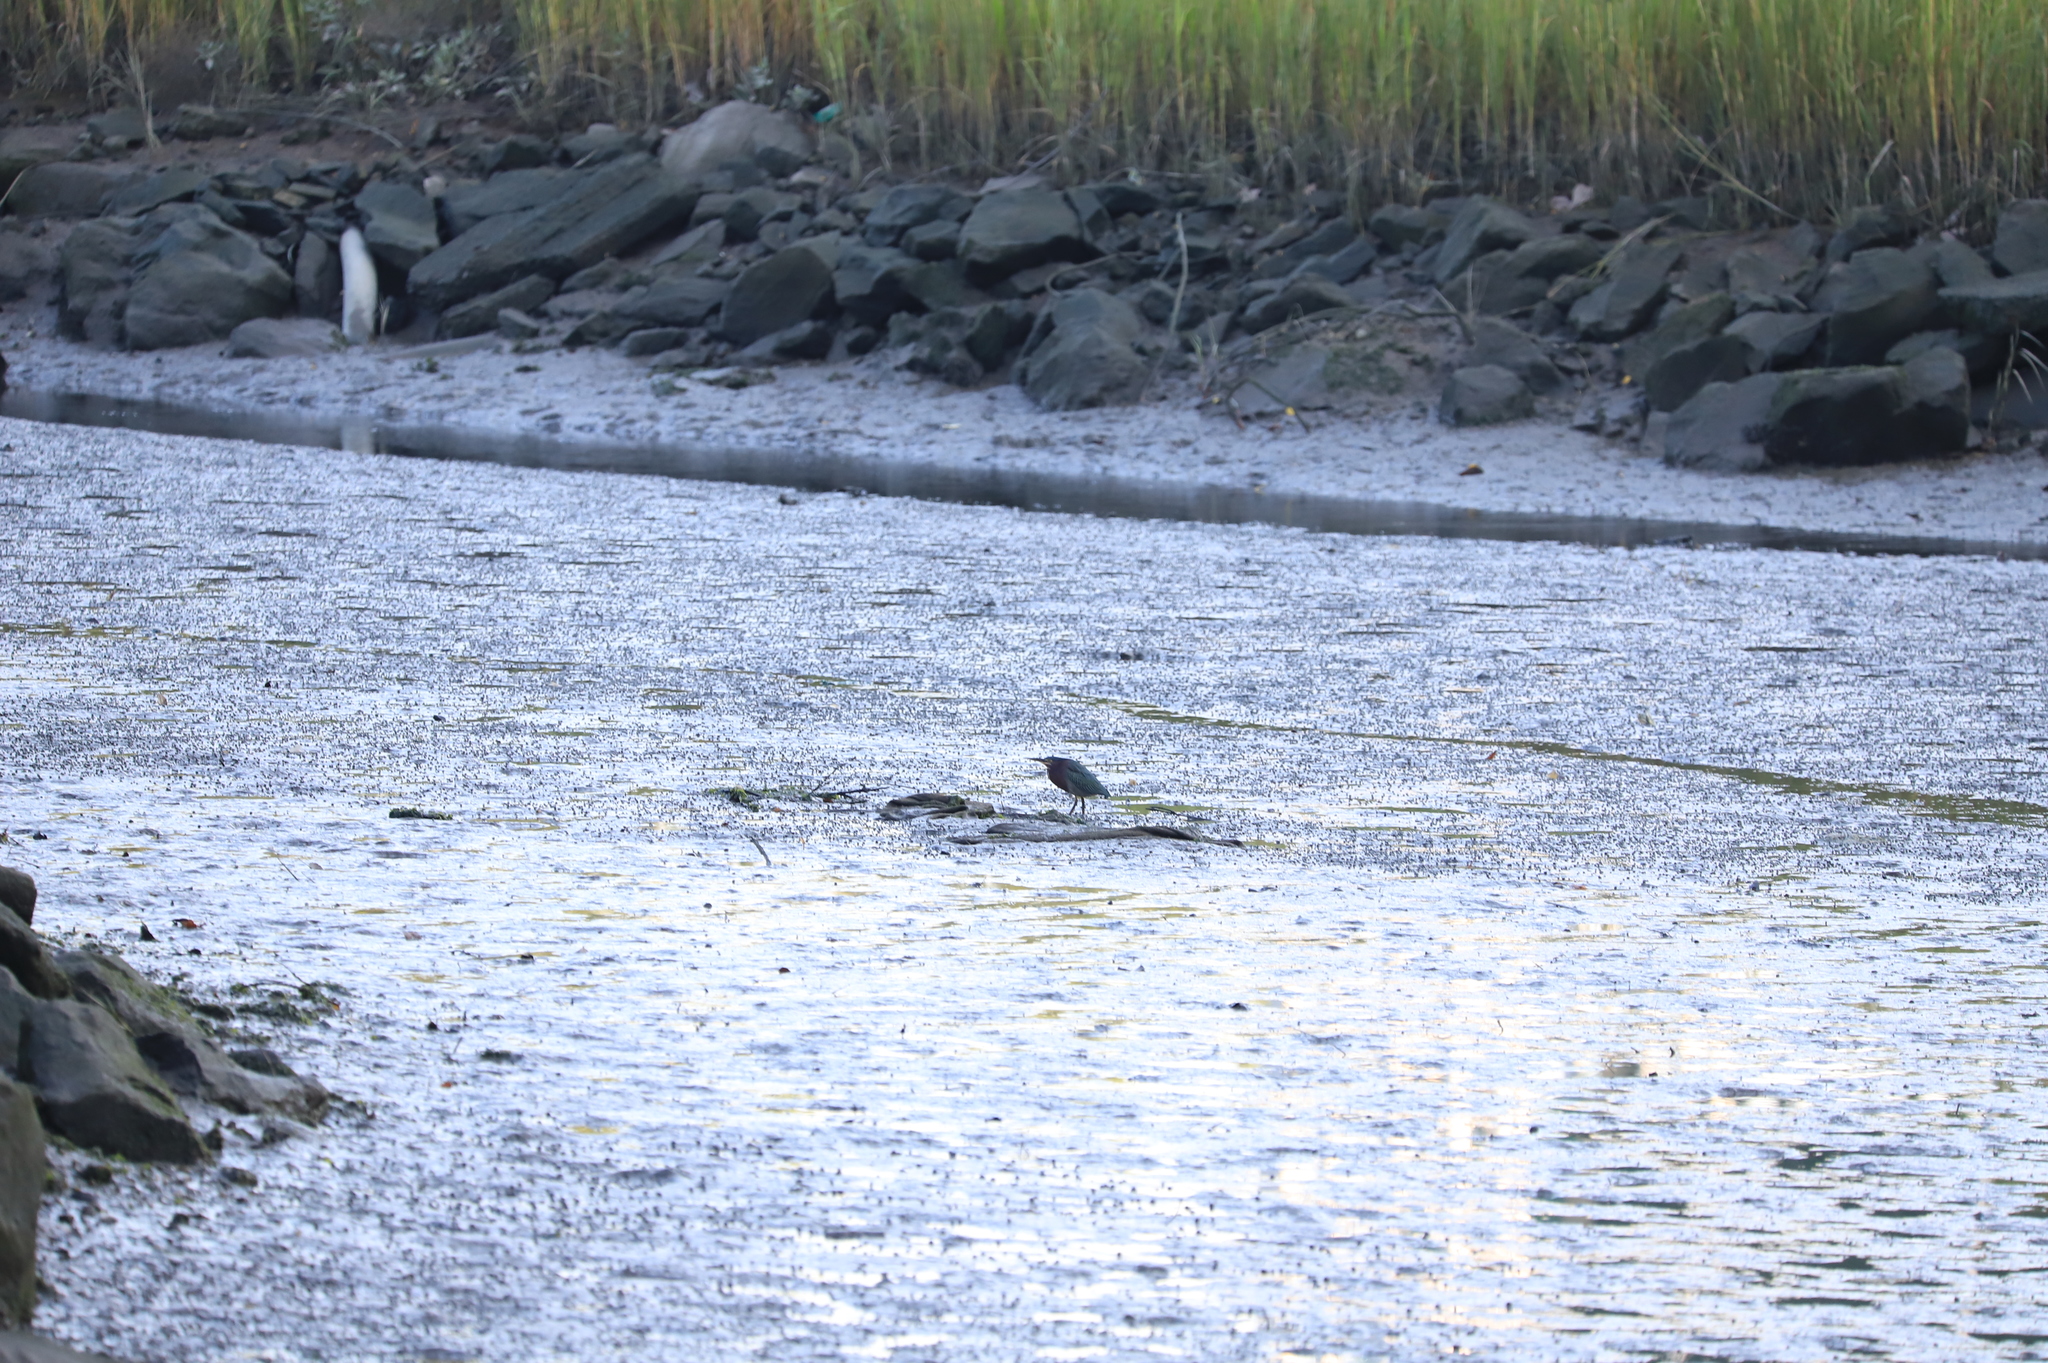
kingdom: Animalia
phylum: Chordata
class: Aves
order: Pelecaniformes
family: Ardeidae
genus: Butorides
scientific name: Butorides virescens
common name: Green heron
